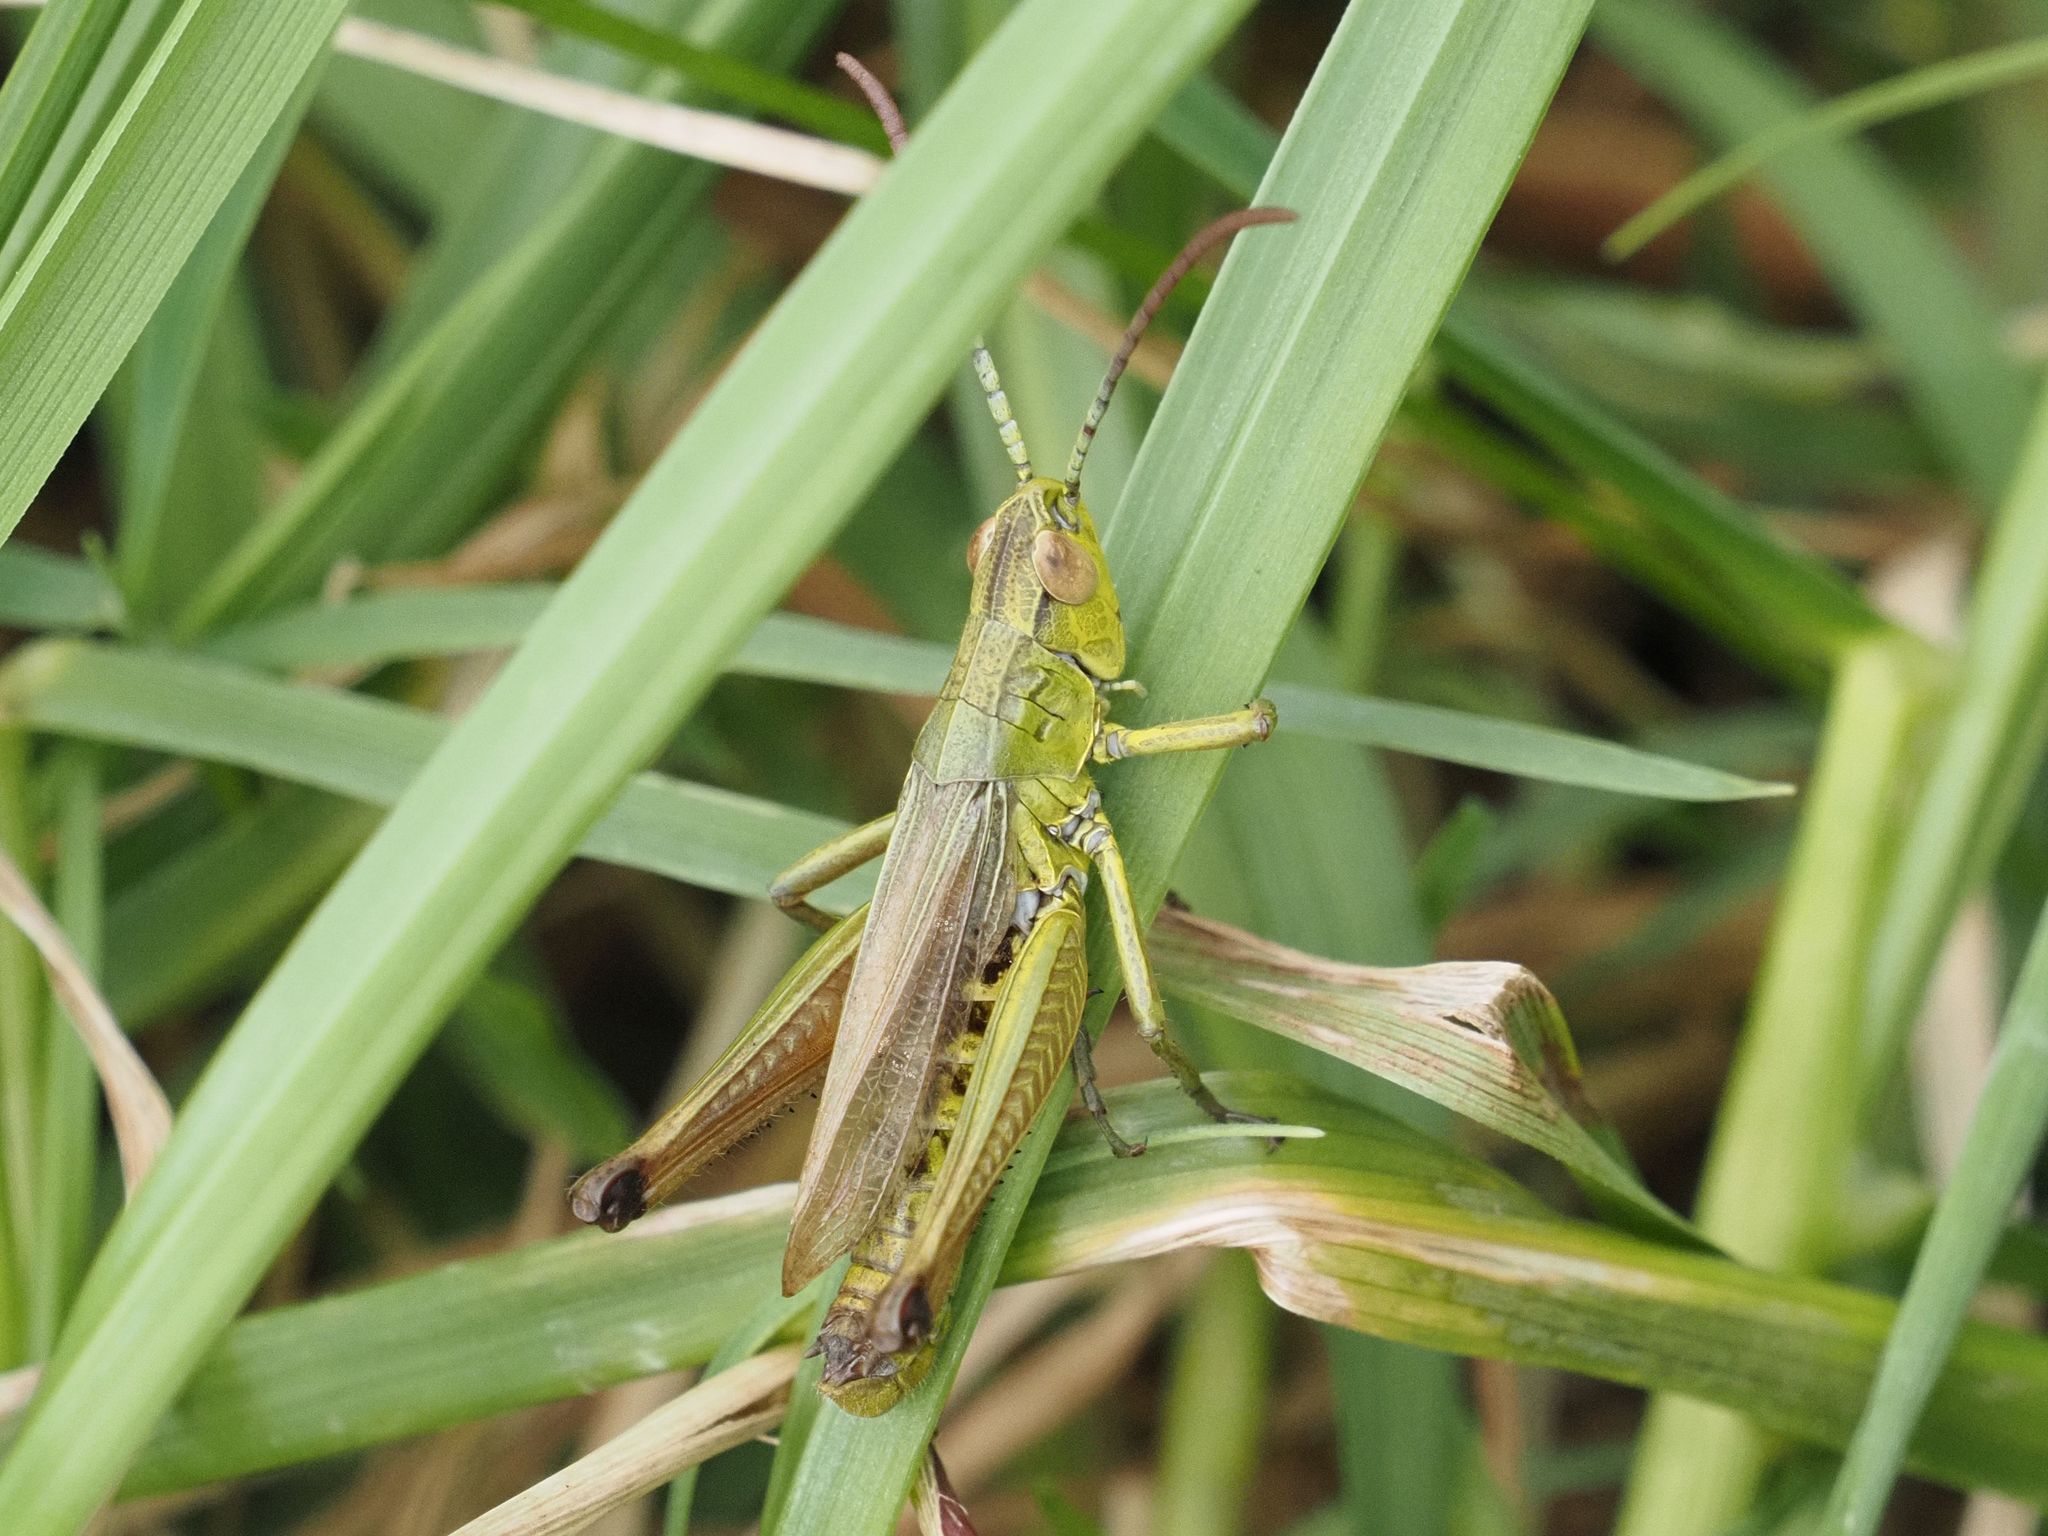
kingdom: Animalia
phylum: Arthropoda
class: Insecta
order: Orthoptera
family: Acrididae
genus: Pseudochorthippus
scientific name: Pseudochorthippus parallelus
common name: Meadow grasshopper
